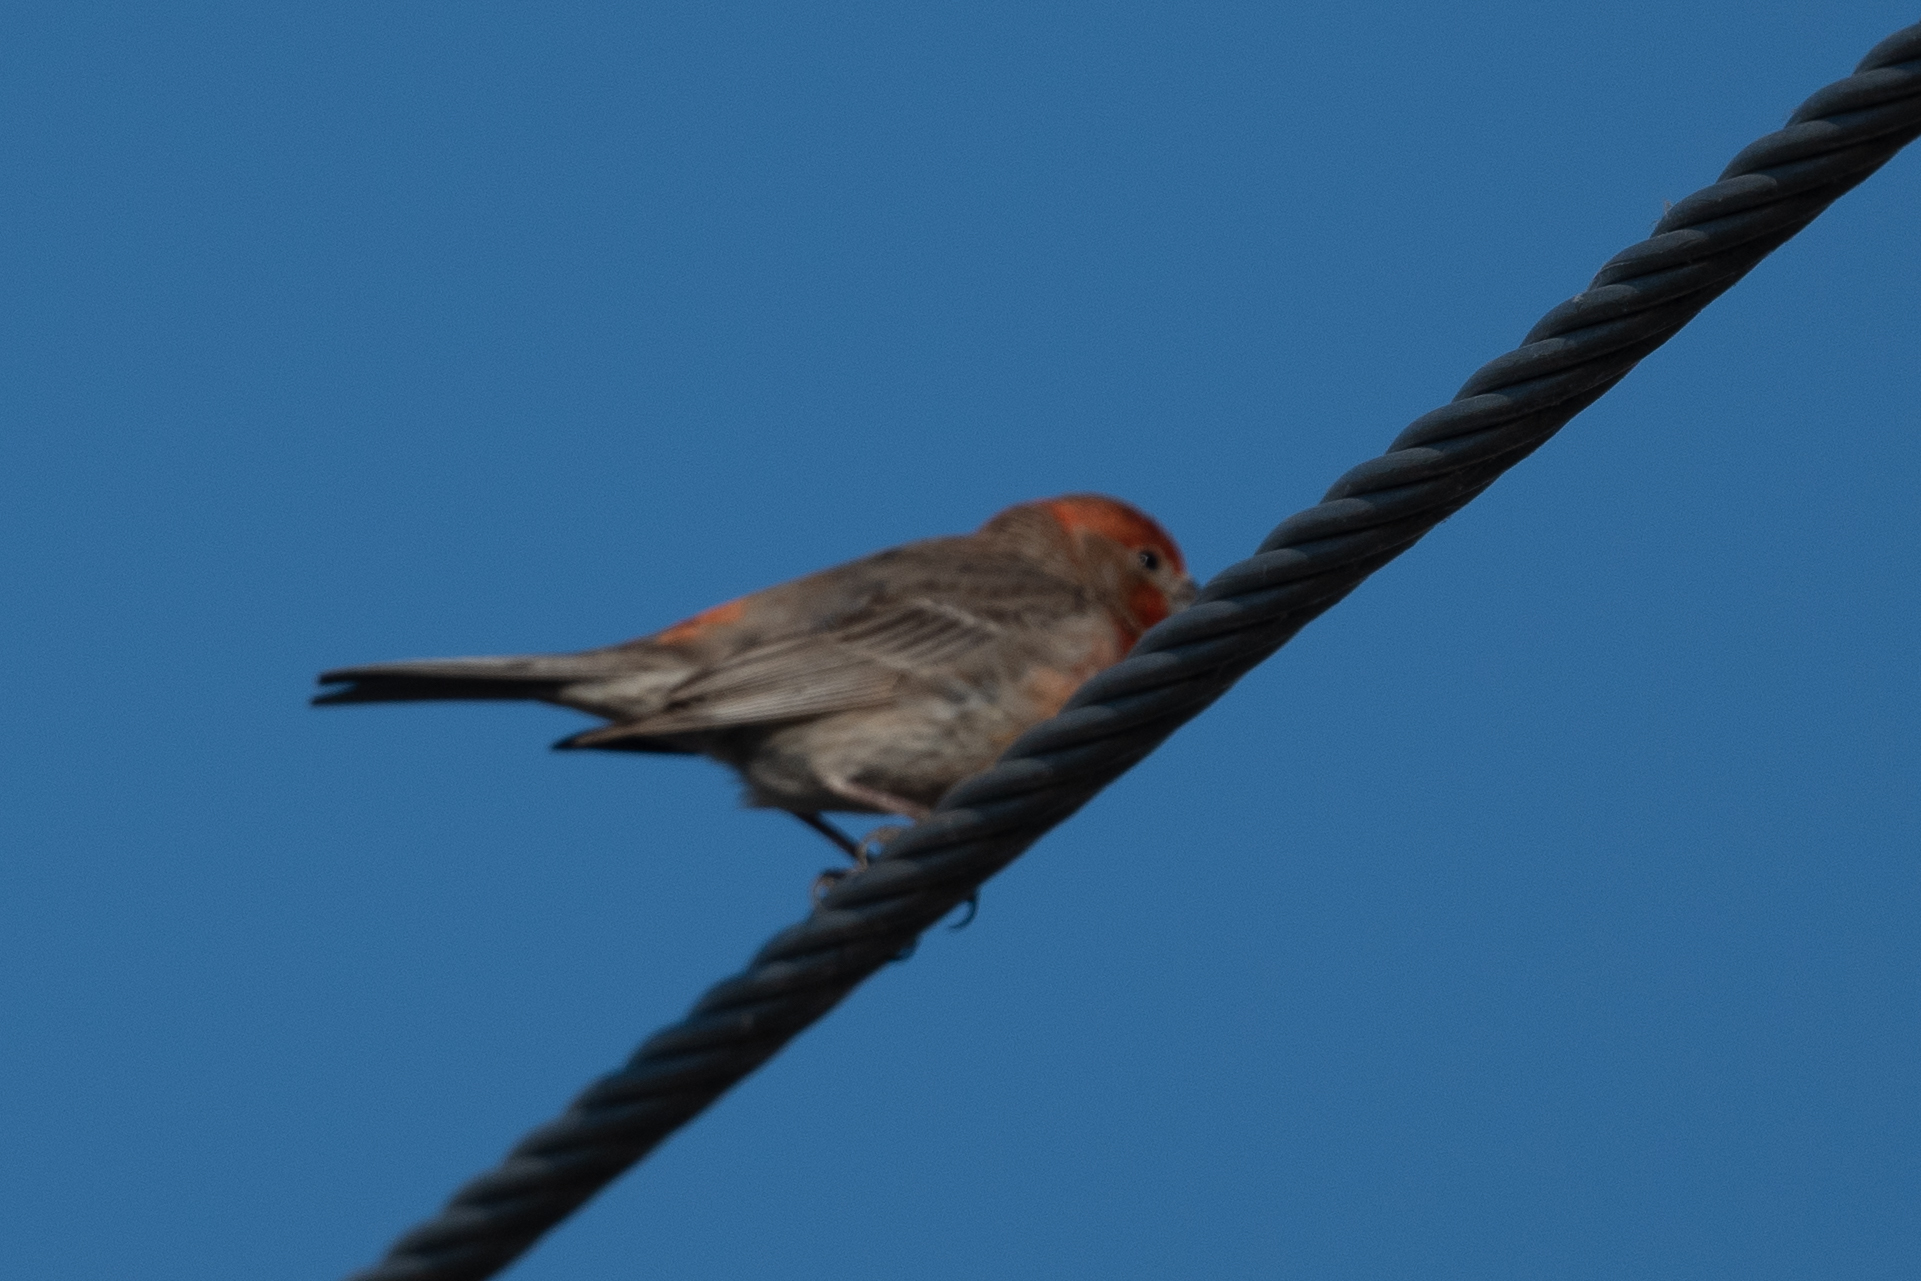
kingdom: Animalia
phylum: Chordata
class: Aves
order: Passeriformes
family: Fringillidae
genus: Haemorhous
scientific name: Haemorhous mexicanus
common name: House finch
